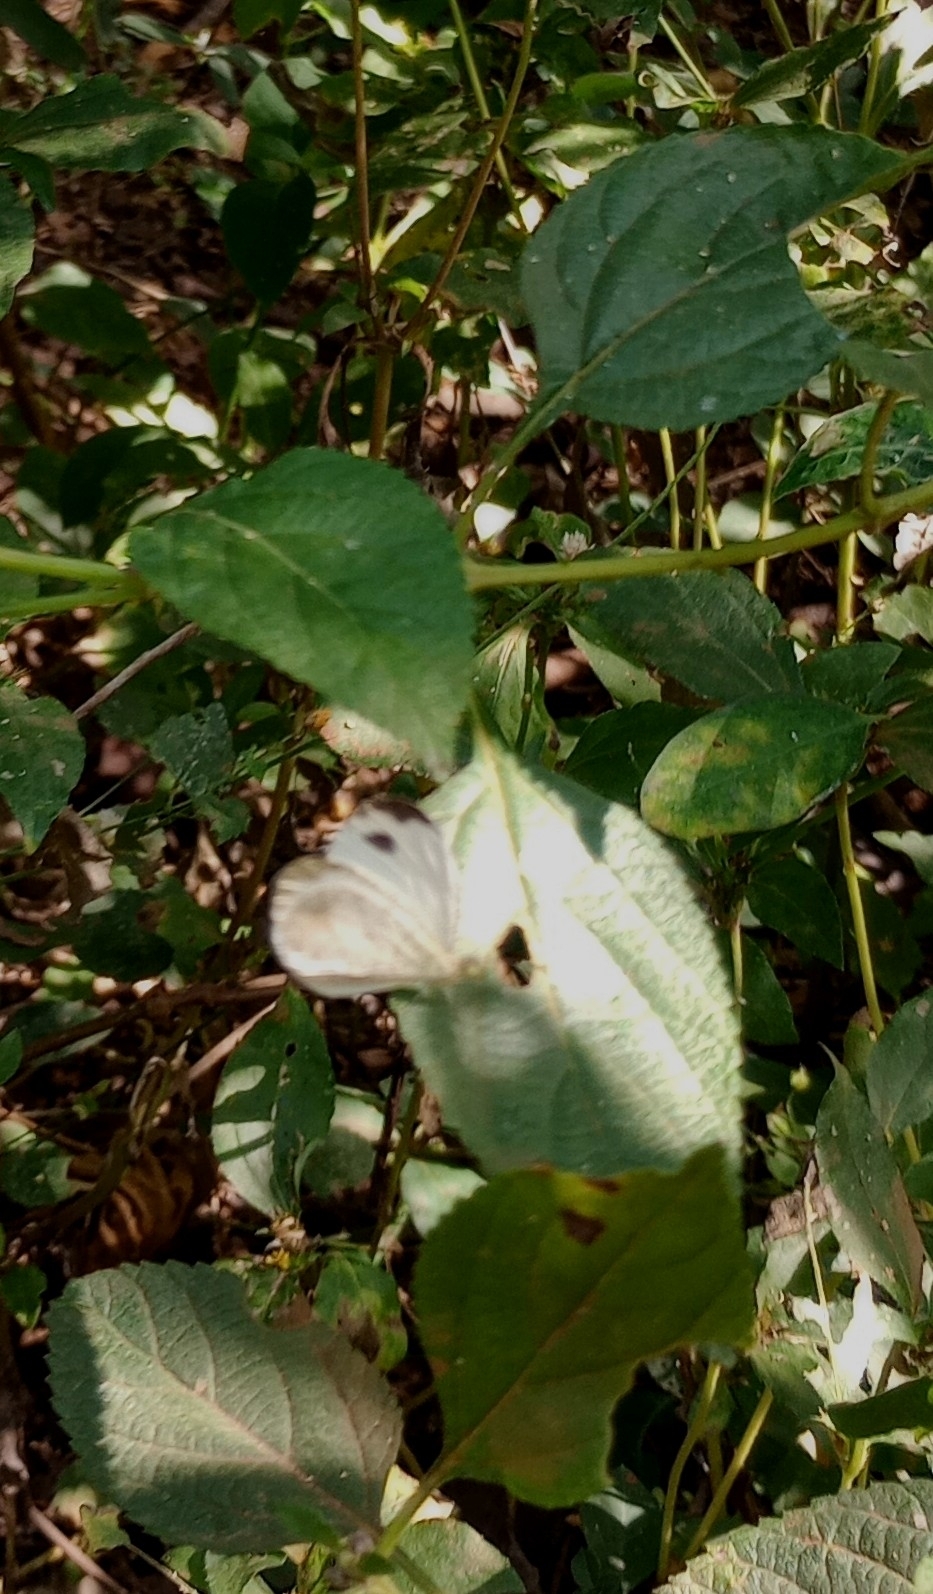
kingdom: Animalia
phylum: Arthropoda
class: Insecta
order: Lepidoptera
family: Pieridae
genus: Leptosia
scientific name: Leptosia nina
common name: Psyche
